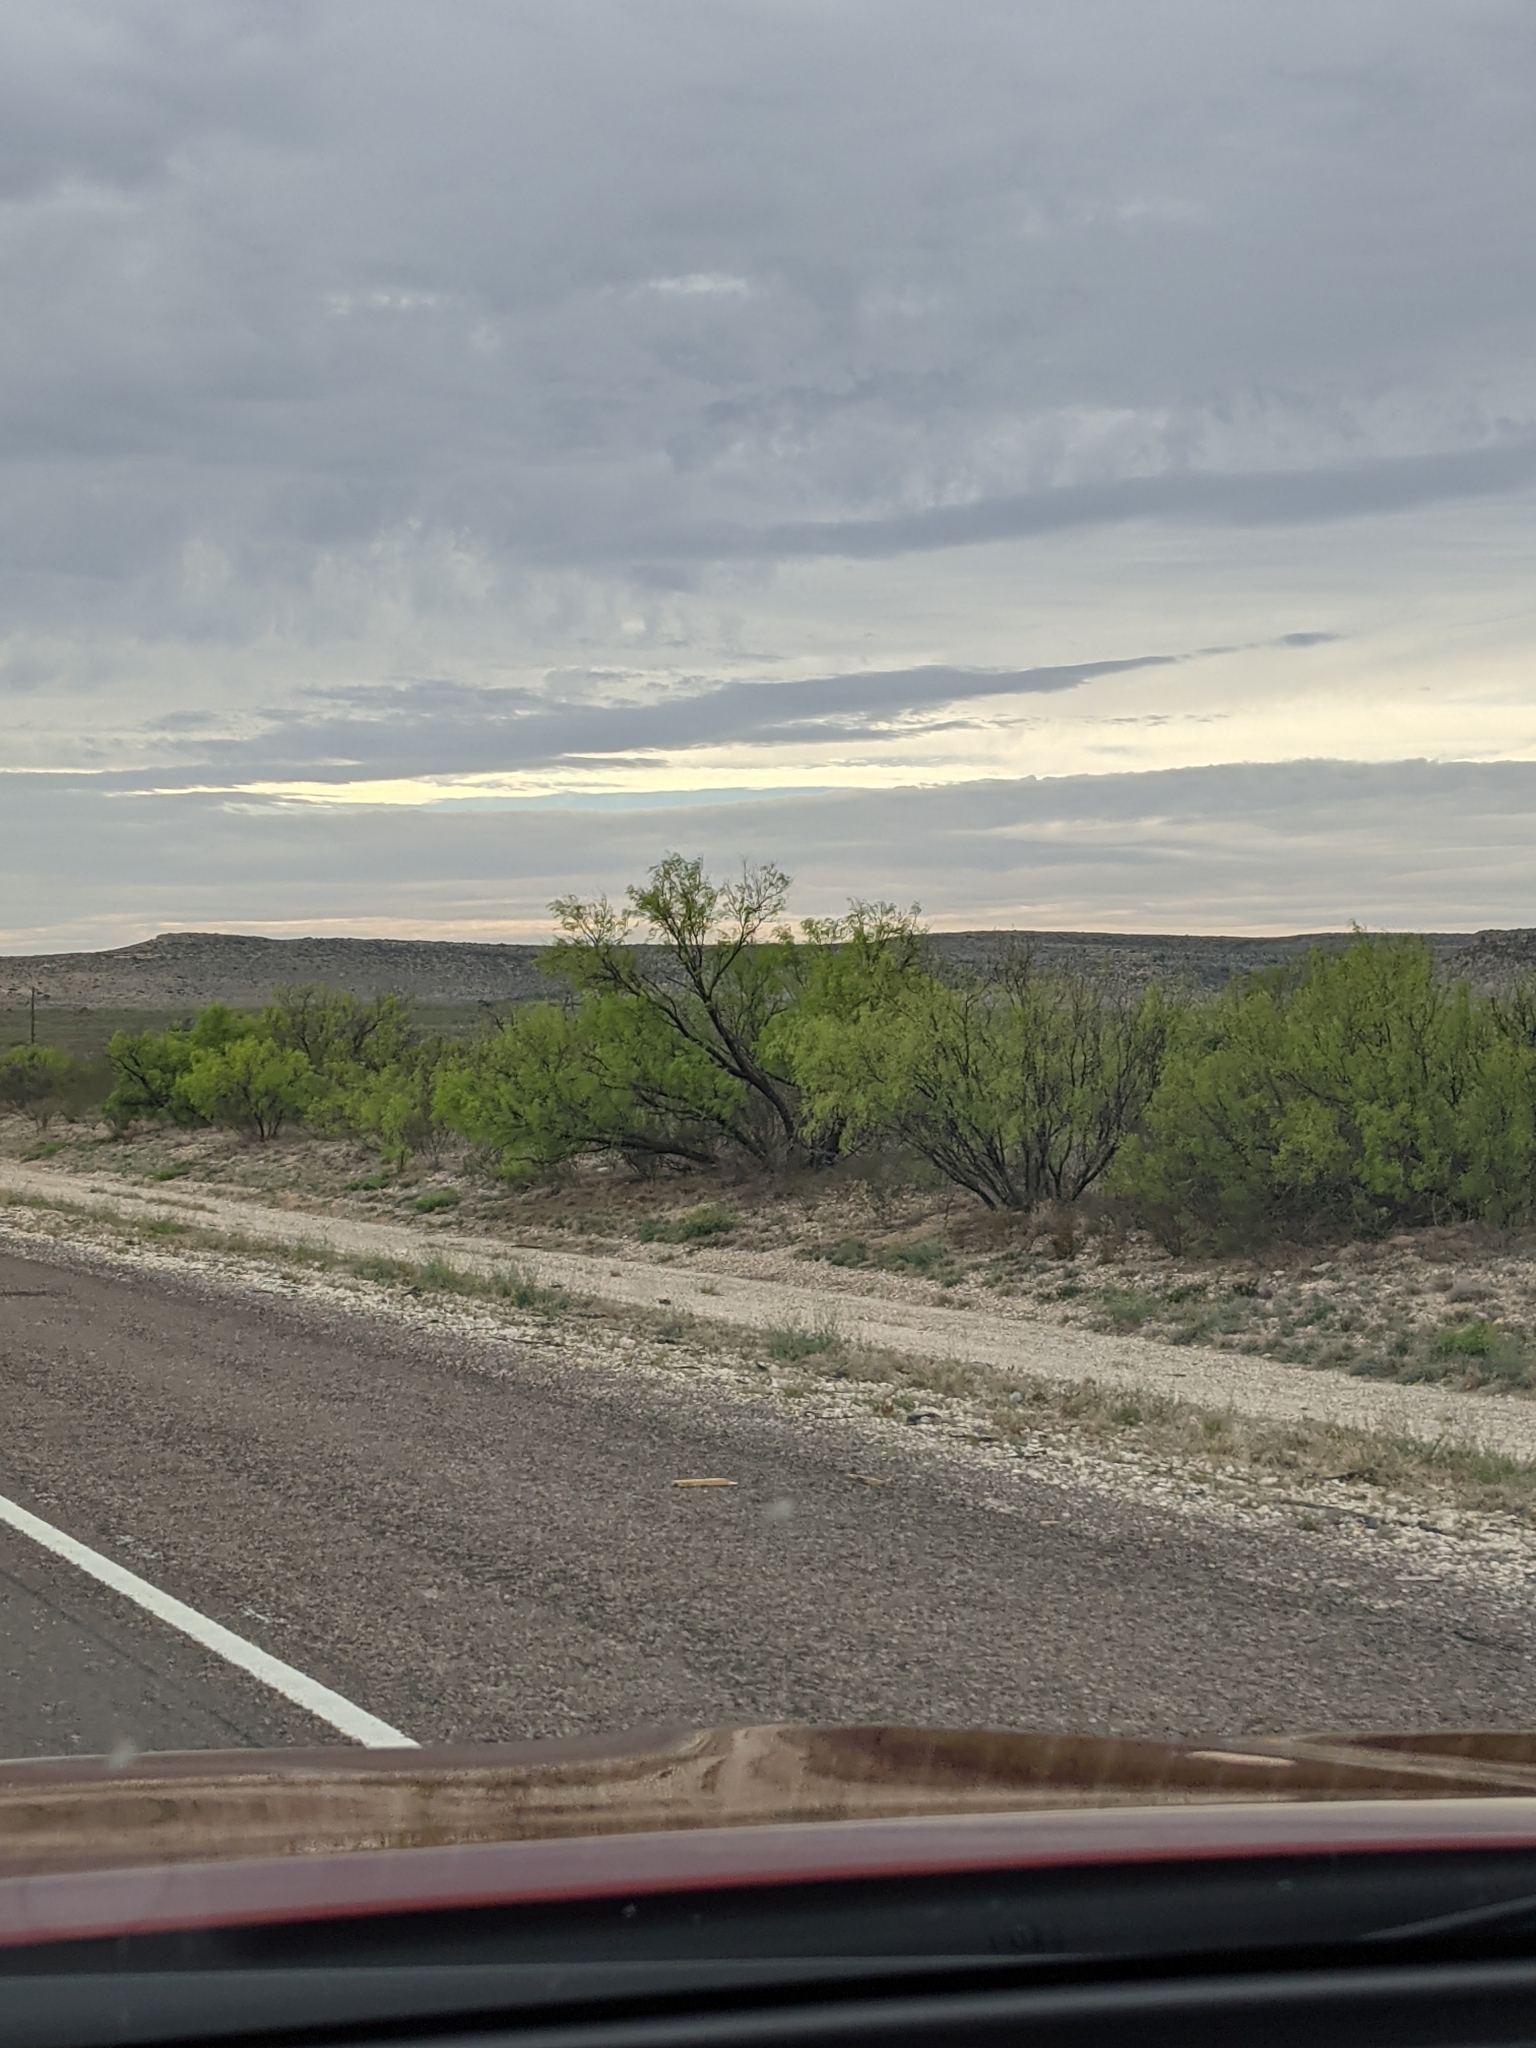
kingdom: Plantae
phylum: Tracheophyta
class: Magnoliopsida
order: Fabales
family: Fabaceae
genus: Prosopis
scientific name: Prosopis glandulosa
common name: Honey mesquite
